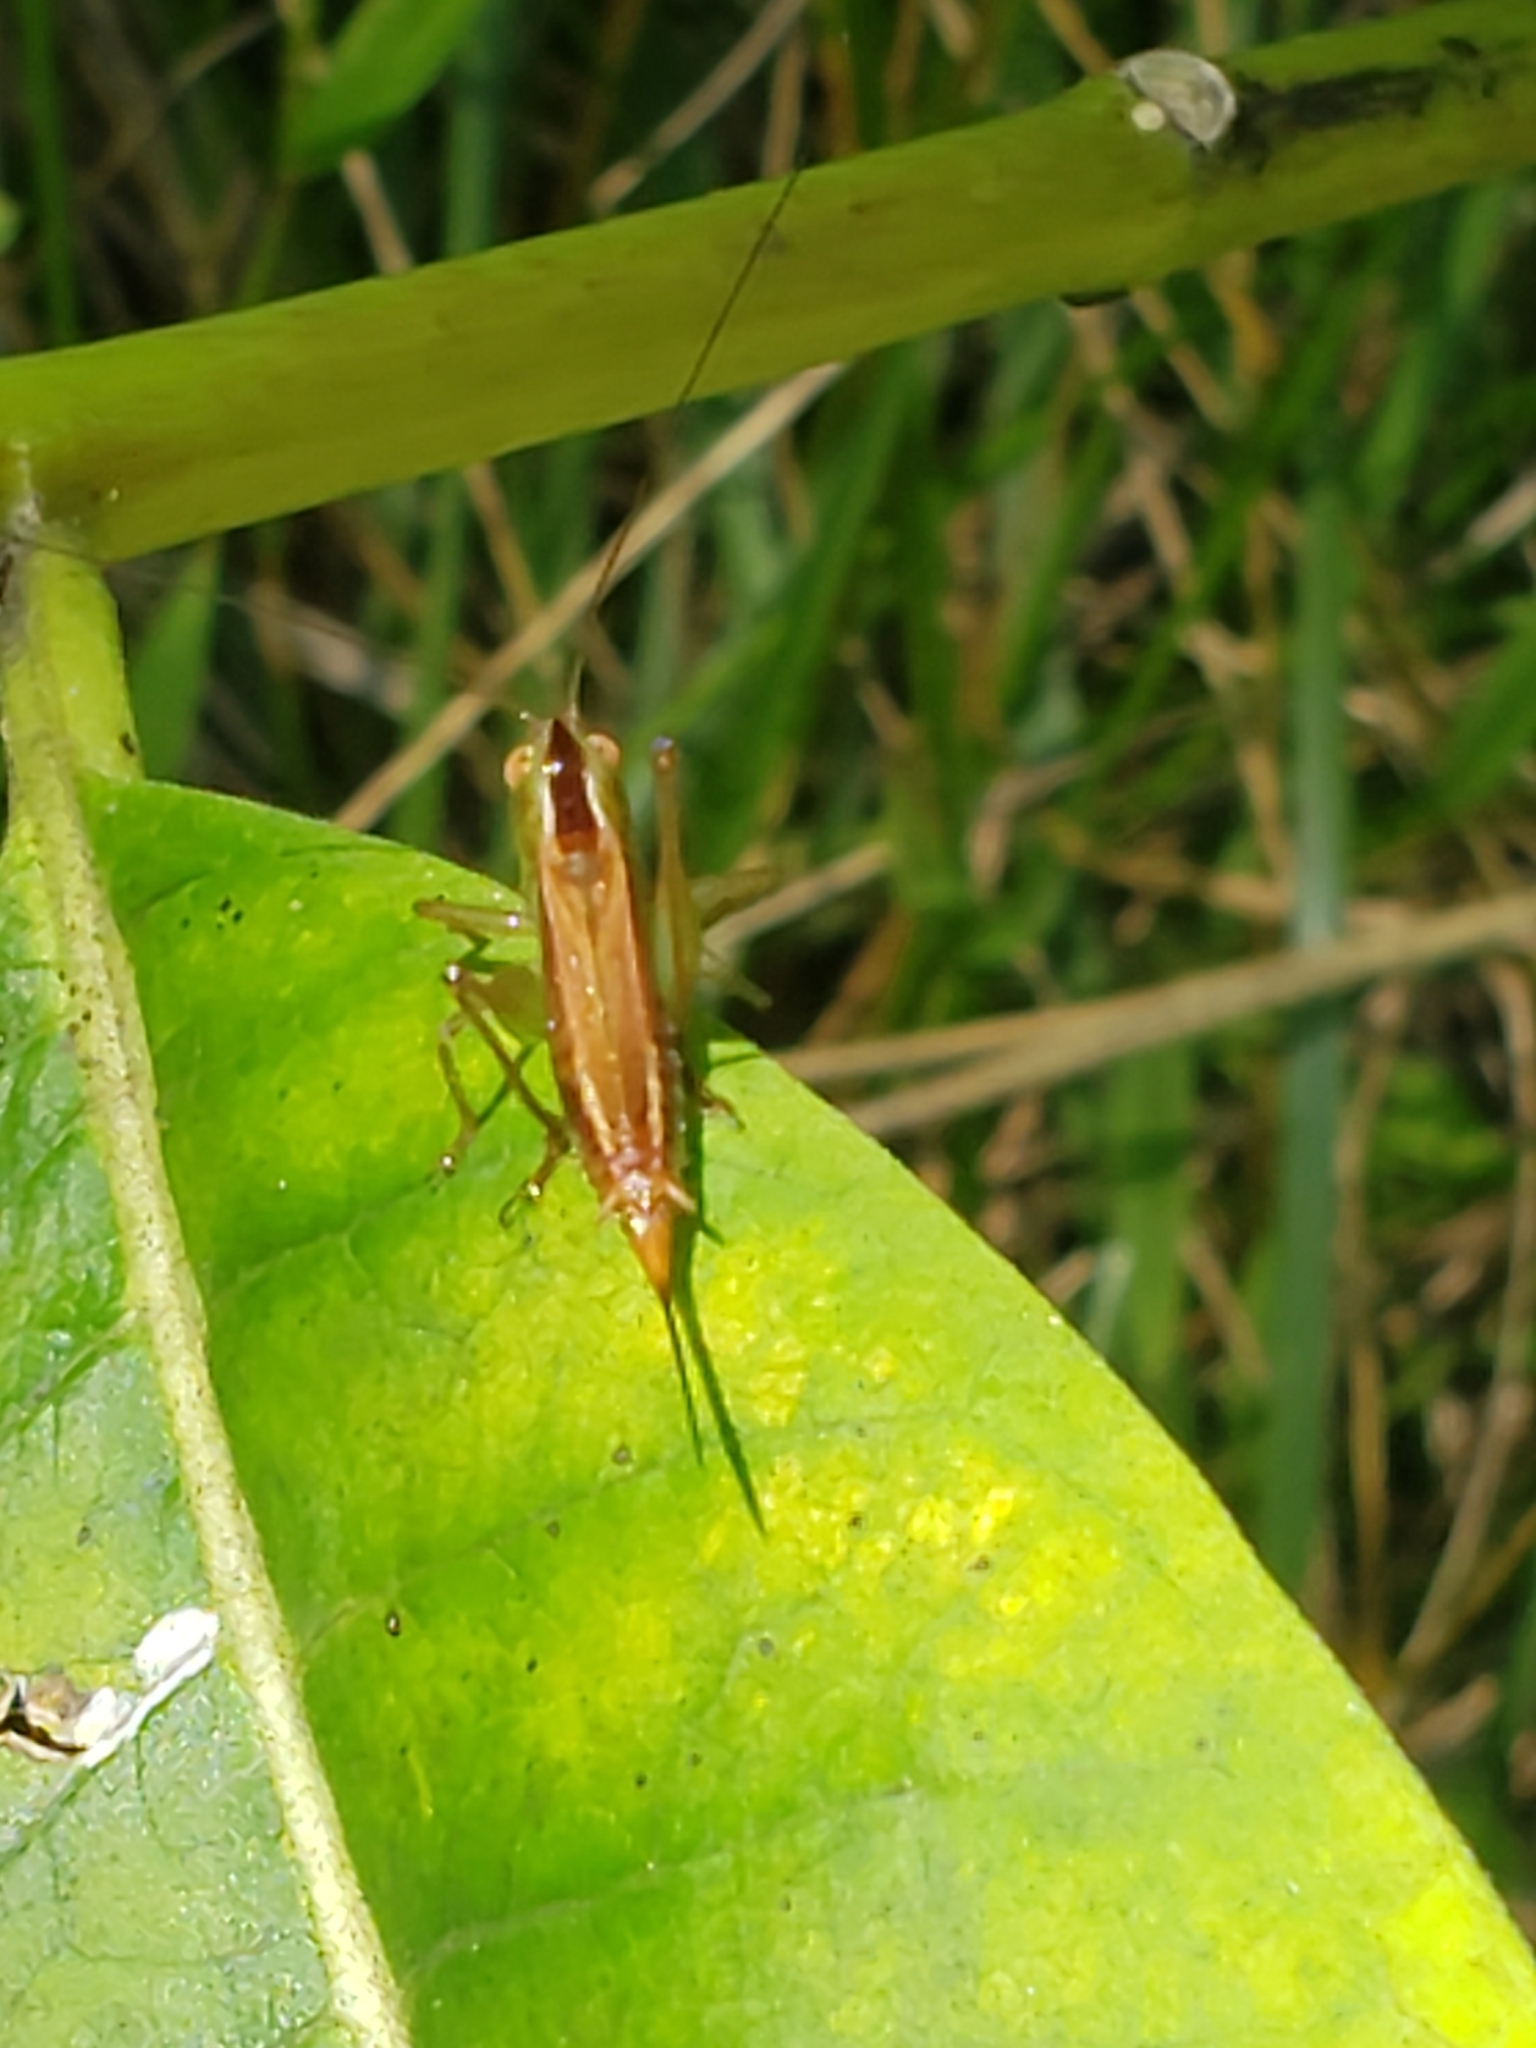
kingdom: Animalia
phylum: Arthropoda
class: Insecta
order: Orthoptera
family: Tettigoniidae
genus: Conocephalus
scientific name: Conocephalus brevipennis
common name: Short-winged meadow katydid
